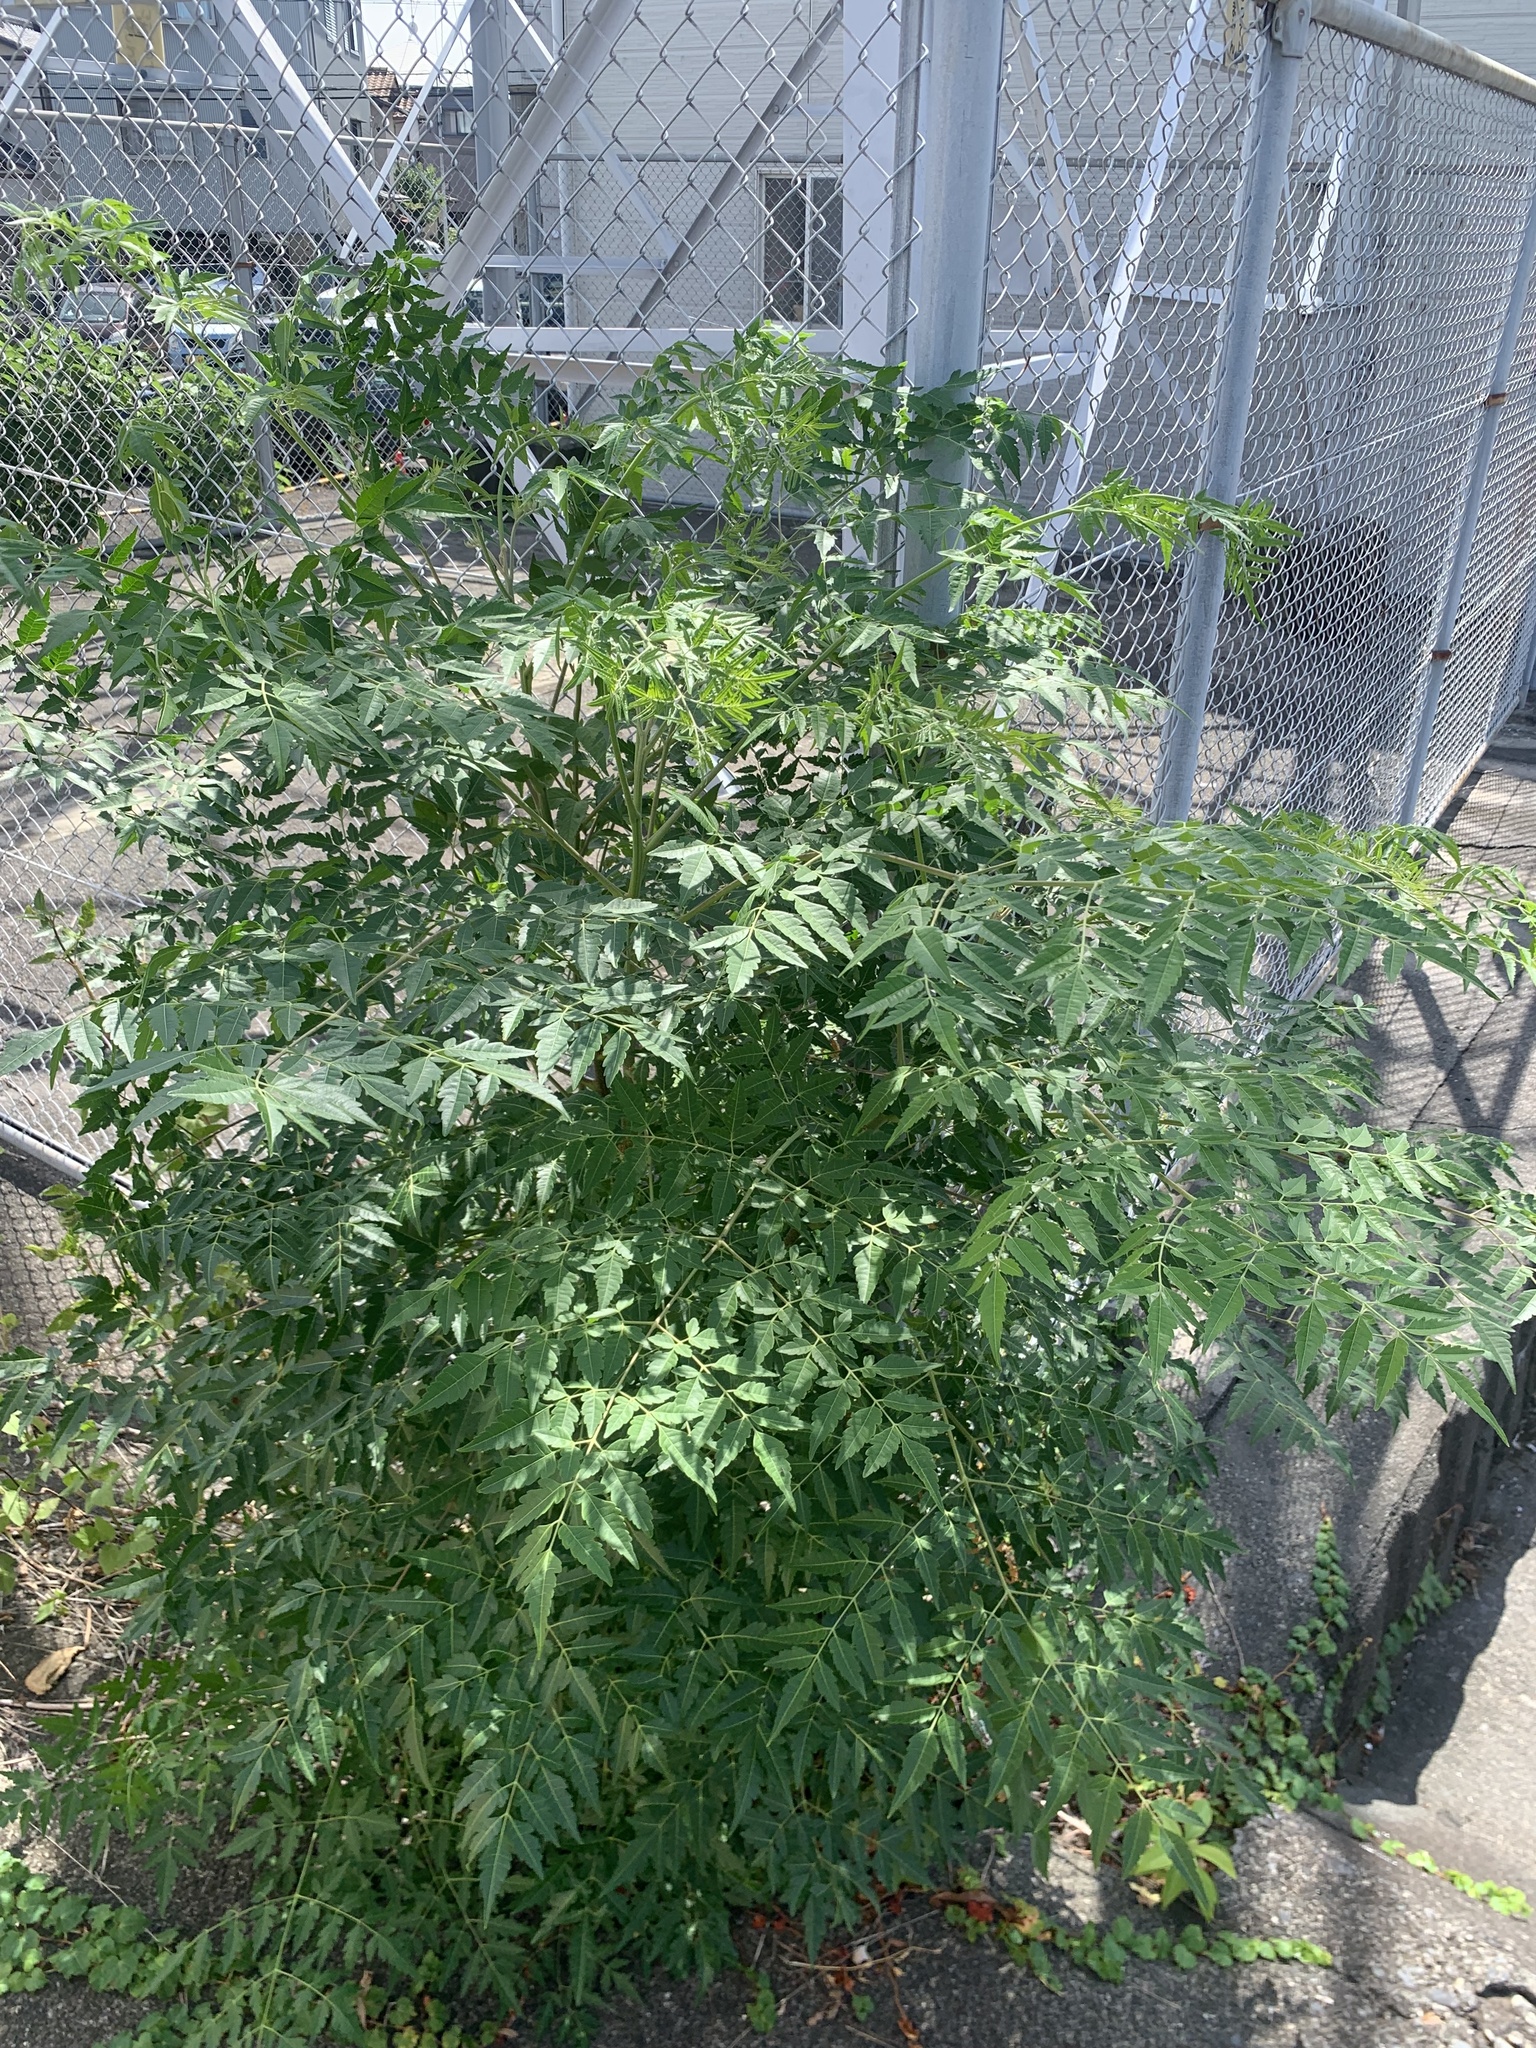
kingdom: Plantae
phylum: Tracheophyta
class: Magnoliopsida
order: Sapindales
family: Meliaceae
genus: Melia
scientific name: Melia azedarach
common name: Chinaberrytree
